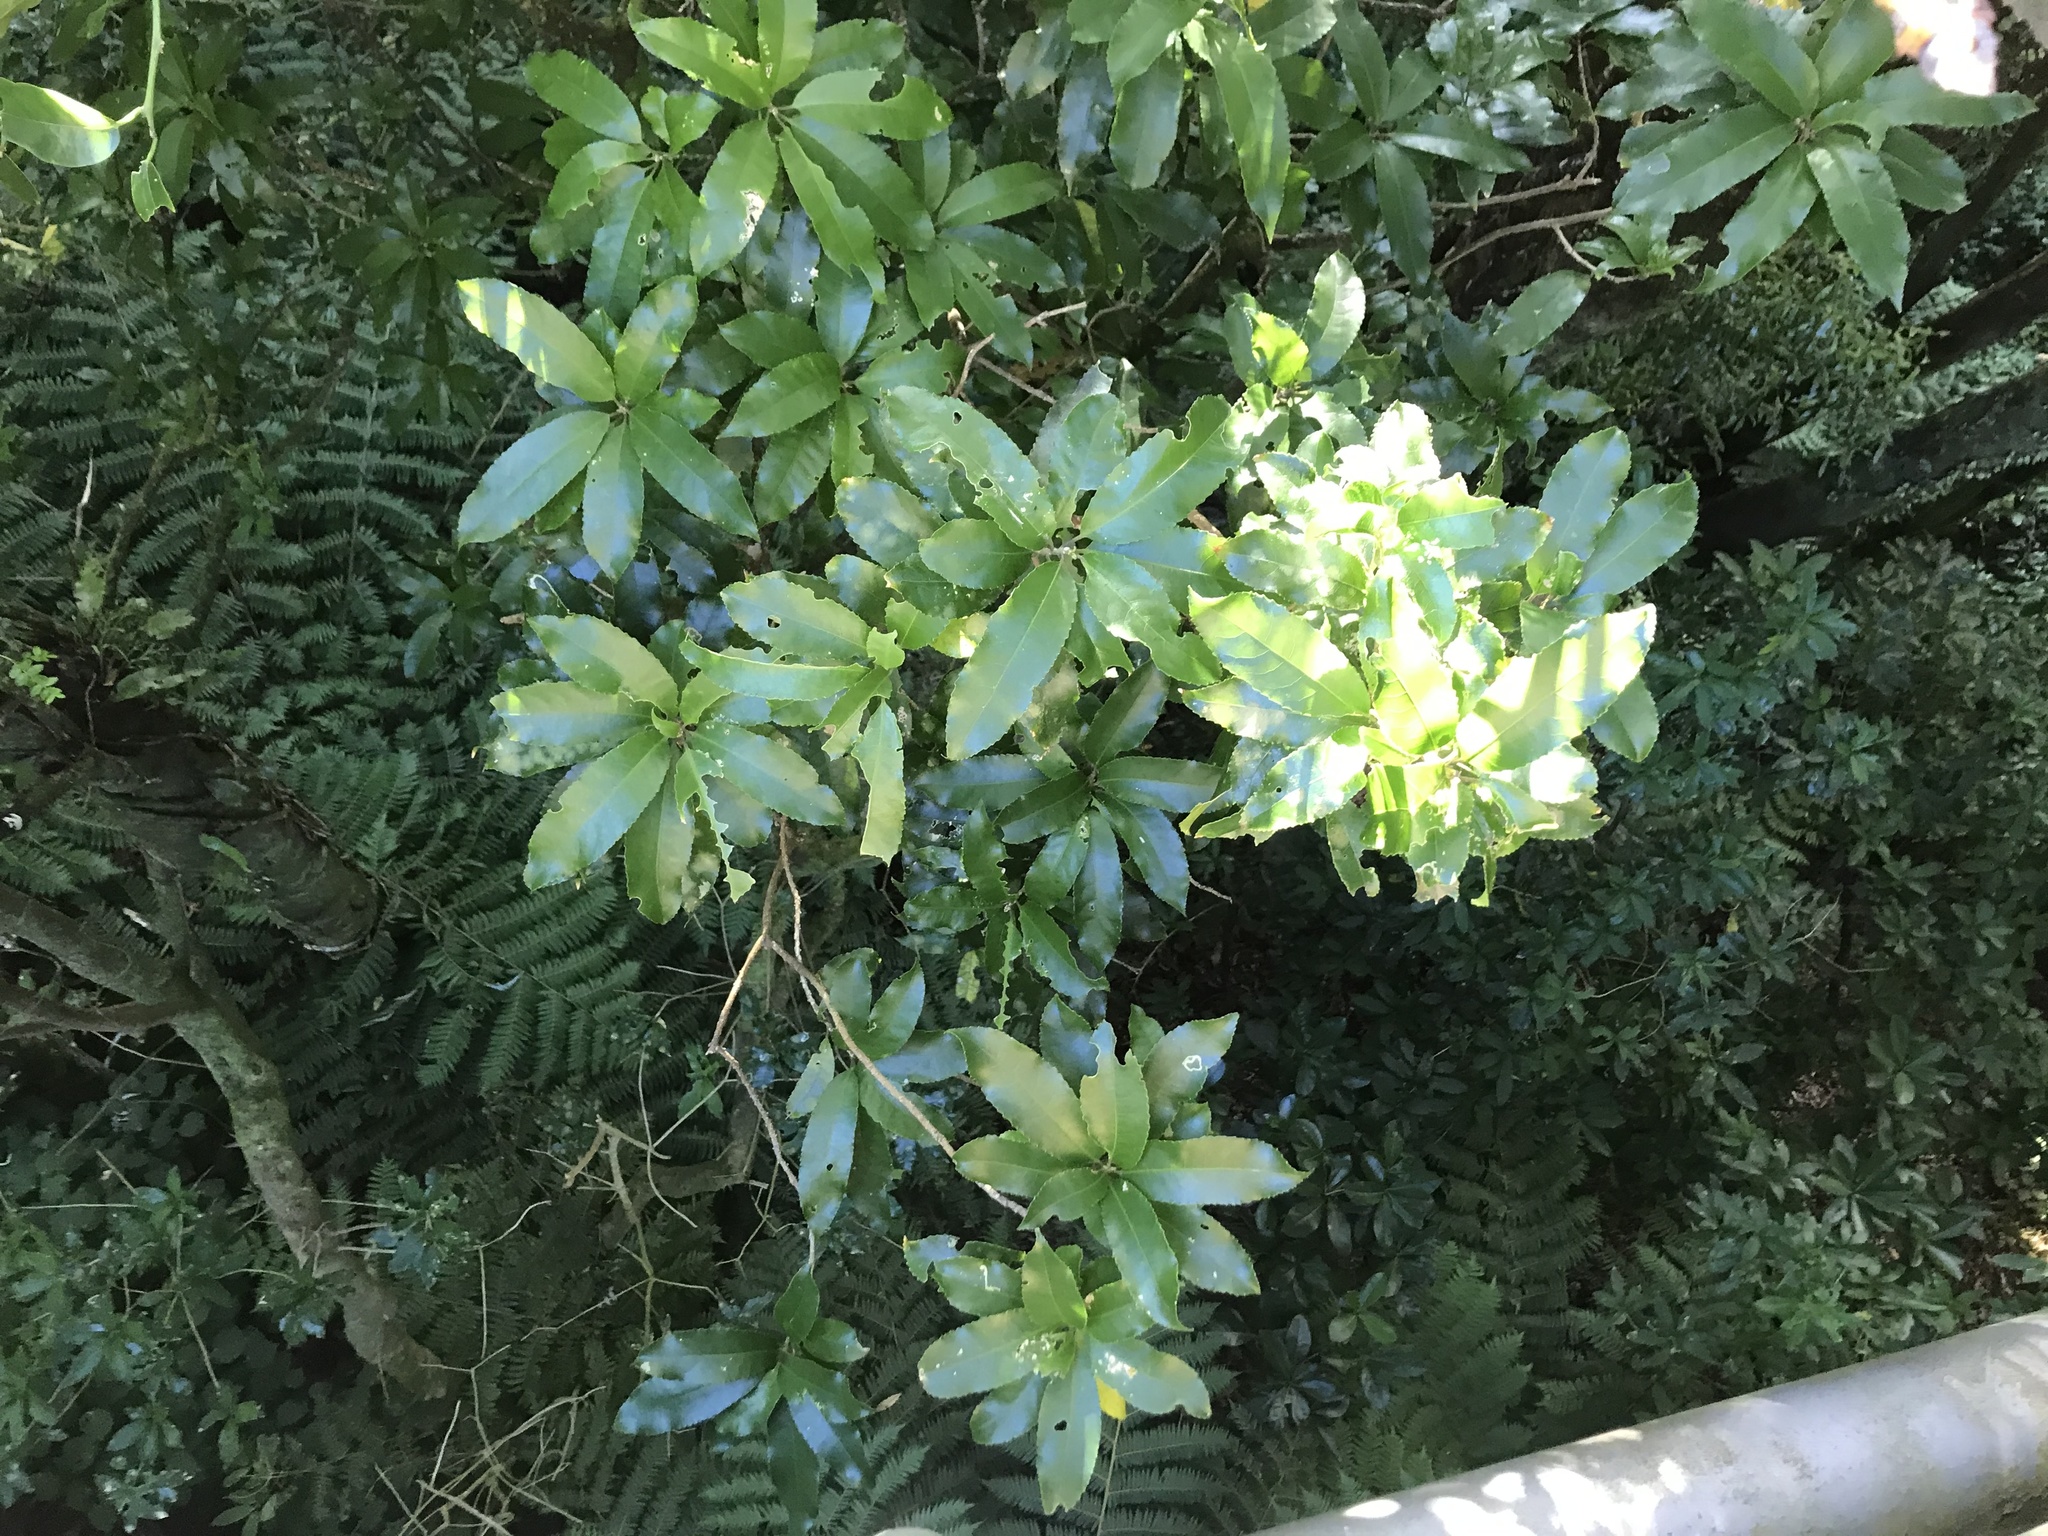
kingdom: Plantae
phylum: Tracheophyta
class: Magnoliopsida
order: Malpighiales
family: Violaceae
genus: Melicytus
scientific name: Melicytus ramiflorus
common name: Mahoe
